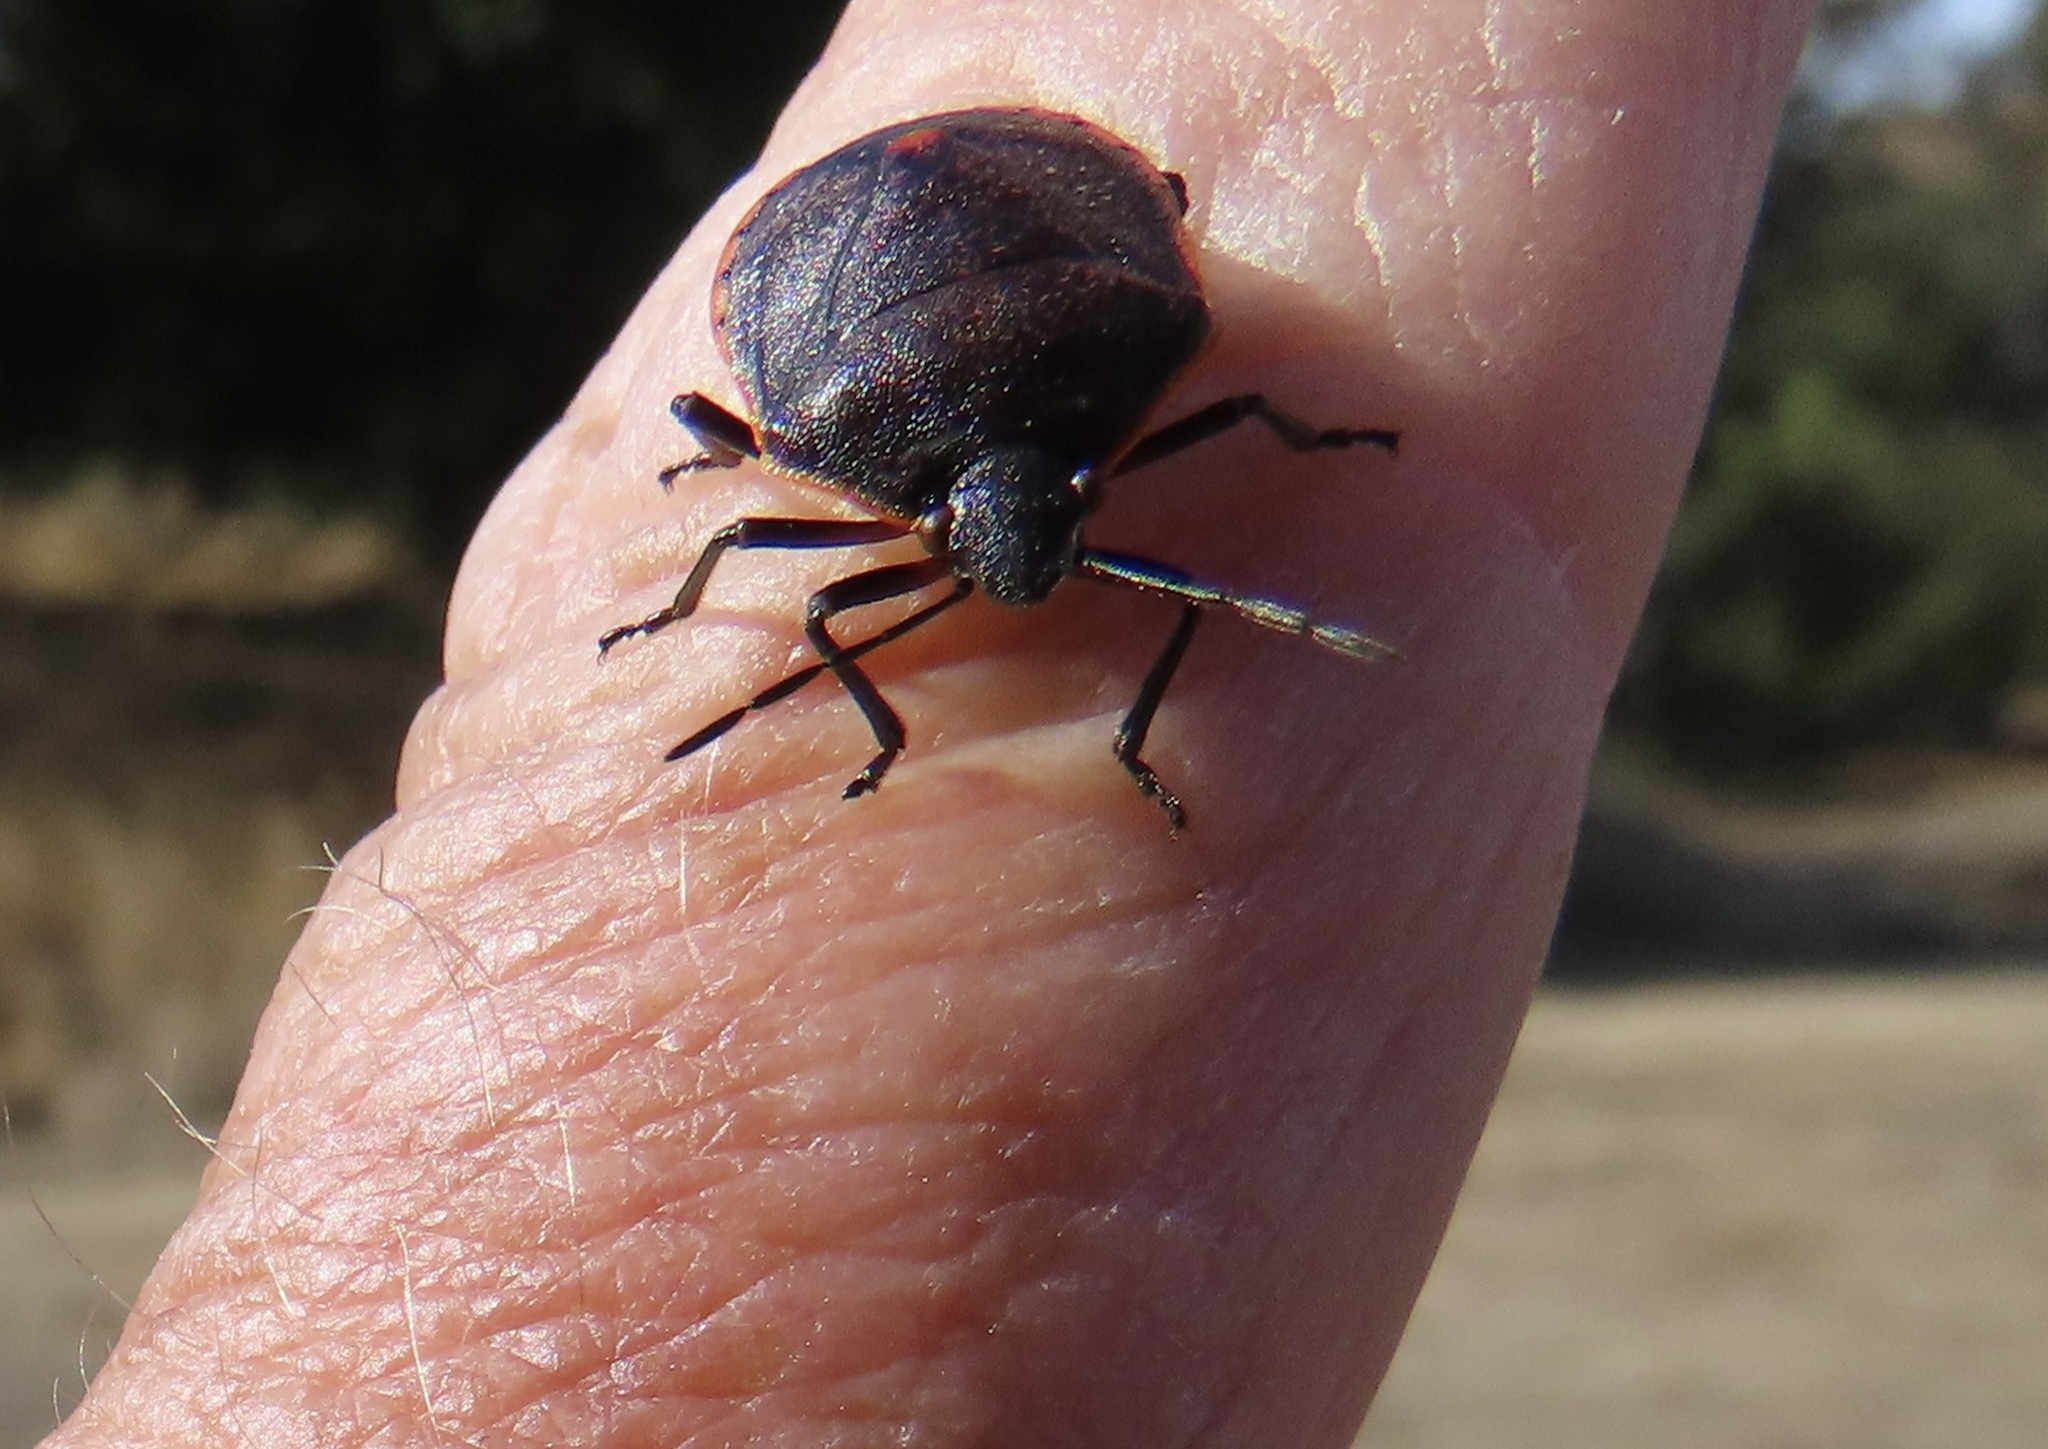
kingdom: Animalia
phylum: Arthropoda
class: Insecta
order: Hemiptera
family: Pentatomidae
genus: Chlorochroa
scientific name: Chlorochroa ligata
